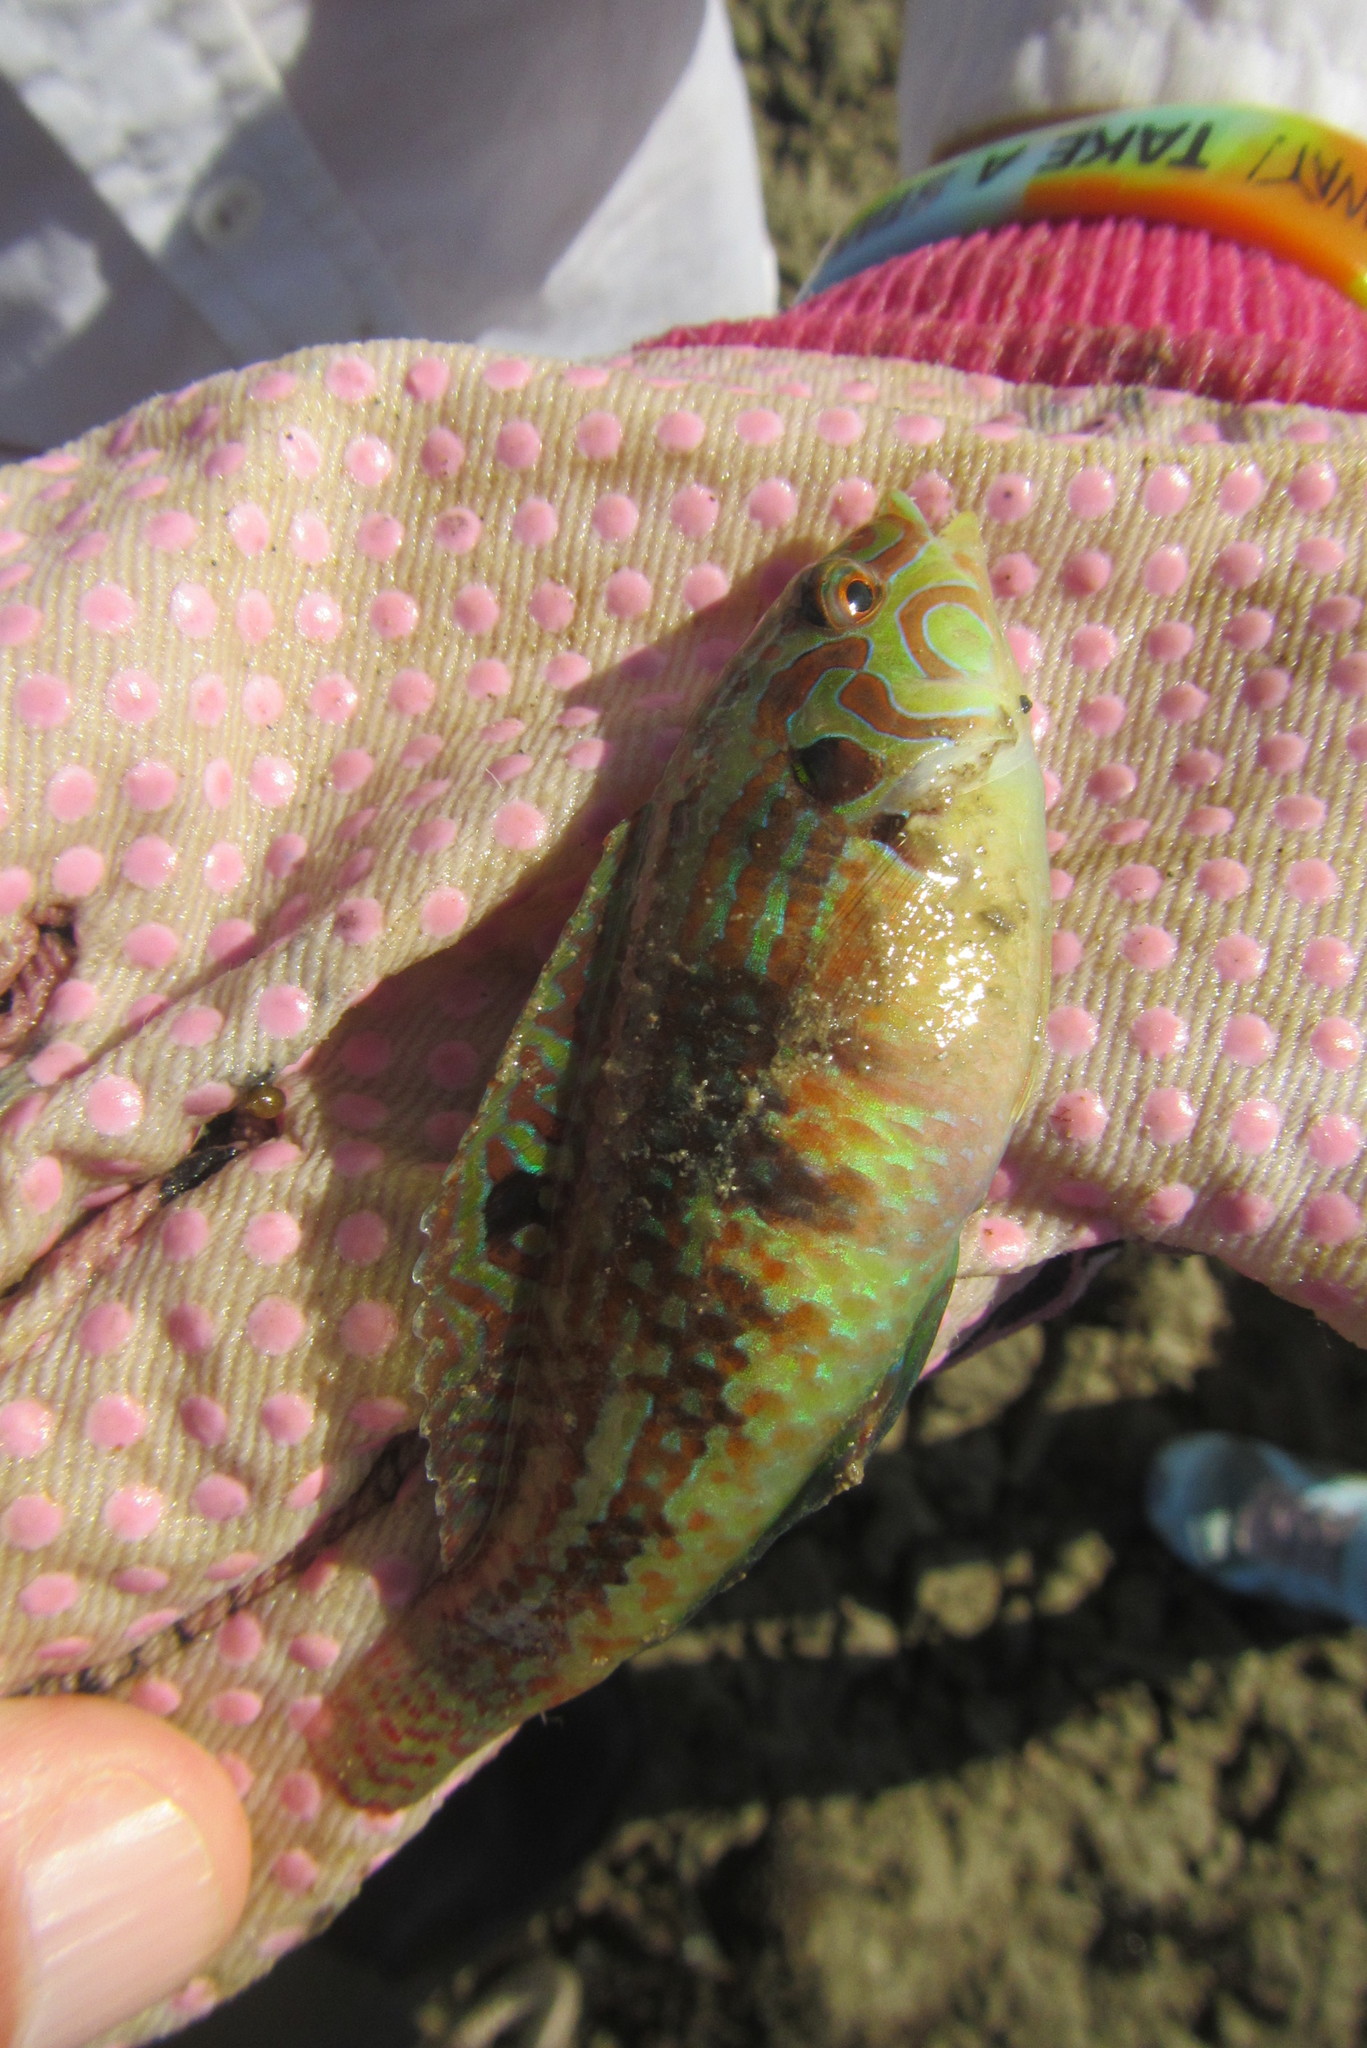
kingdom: Animalia
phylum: Chordata
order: Perciformes
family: Labridae
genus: Halichoeres
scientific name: Halichoeres miniatus
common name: Circle-cheek wrasse
